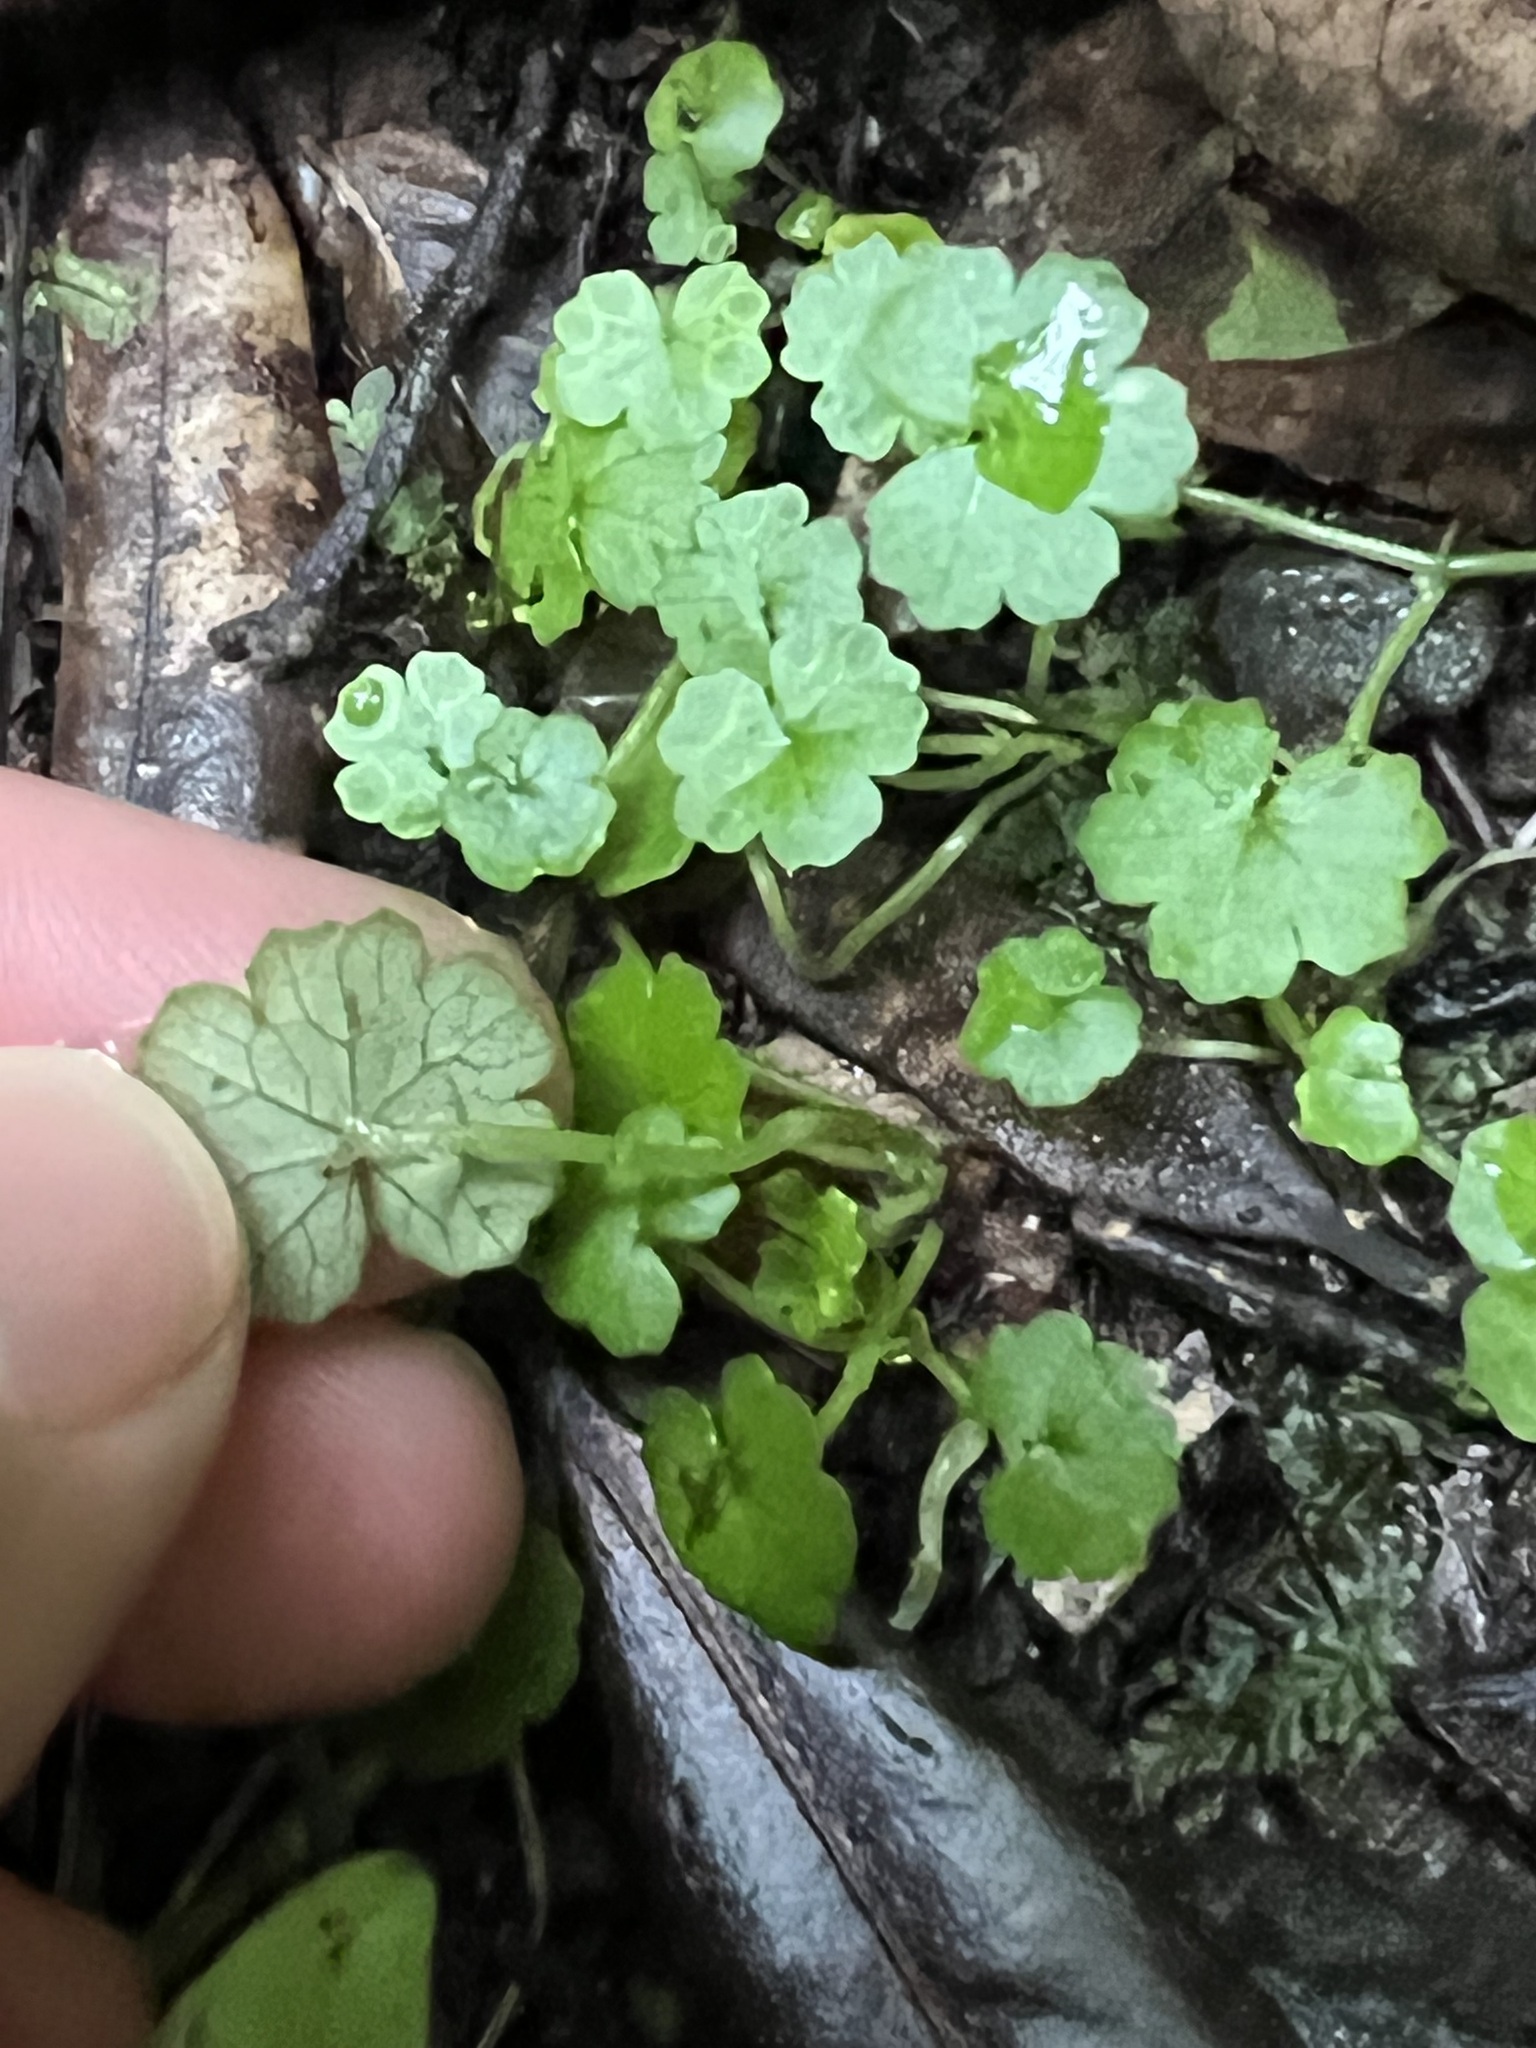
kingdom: Plantae
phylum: Tracheophyta
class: Magnoliopsida
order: Apiales
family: Araliaceae
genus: Hydrocotyle
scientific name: Hydrocotyle heteromeria
